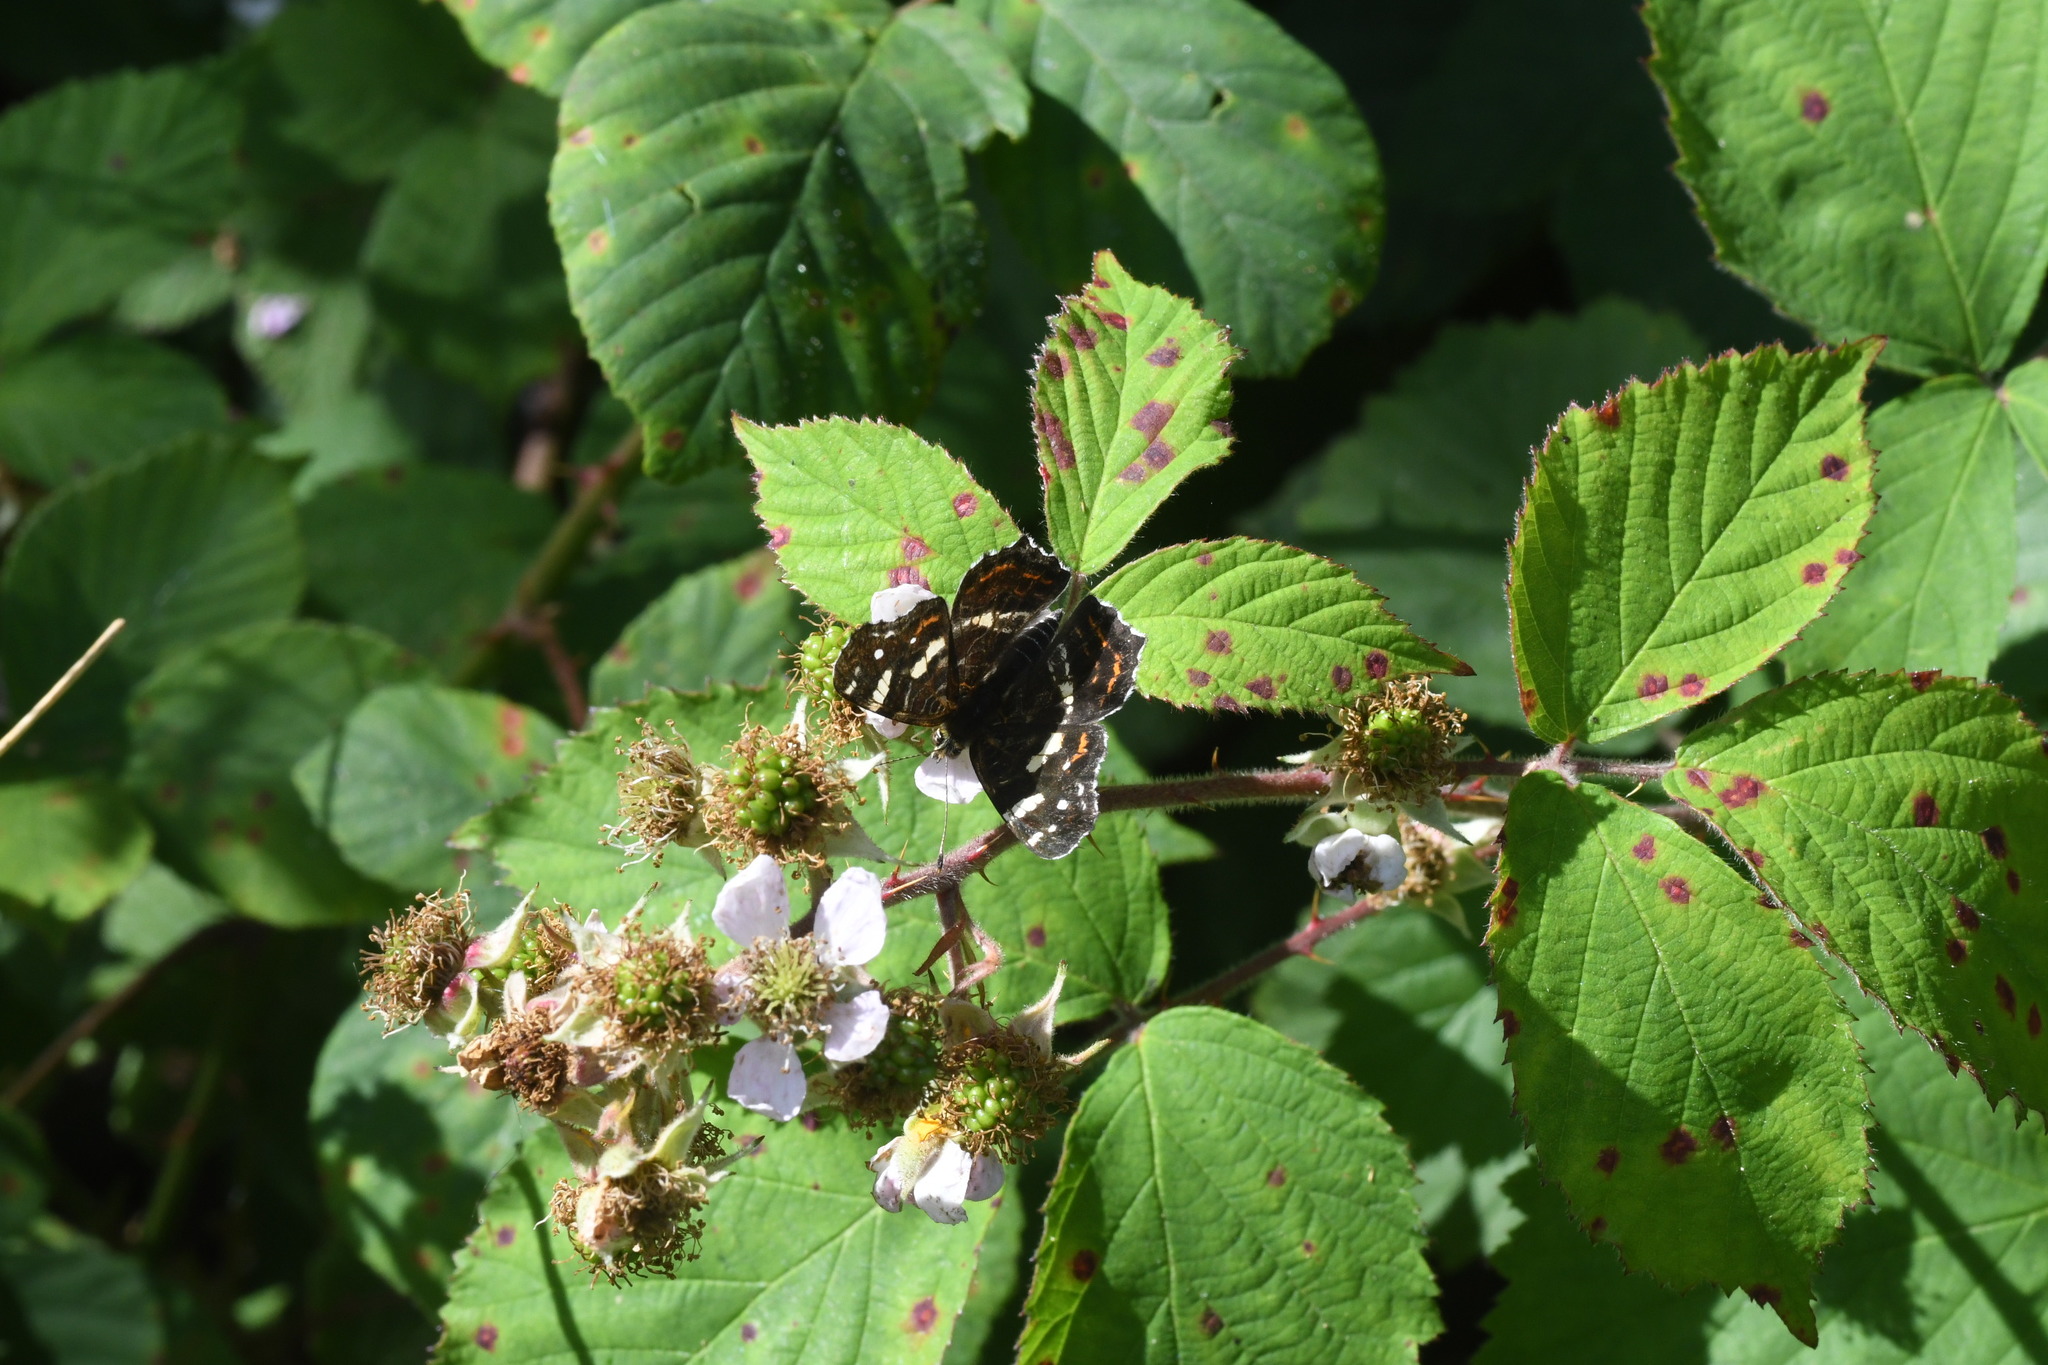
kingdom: Animalia
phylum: Arthropoda
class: Insecta
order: Lepidoptera
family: Nymphalidae
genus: Araschnia
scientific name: Araschnia levana
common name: Map butterfly
